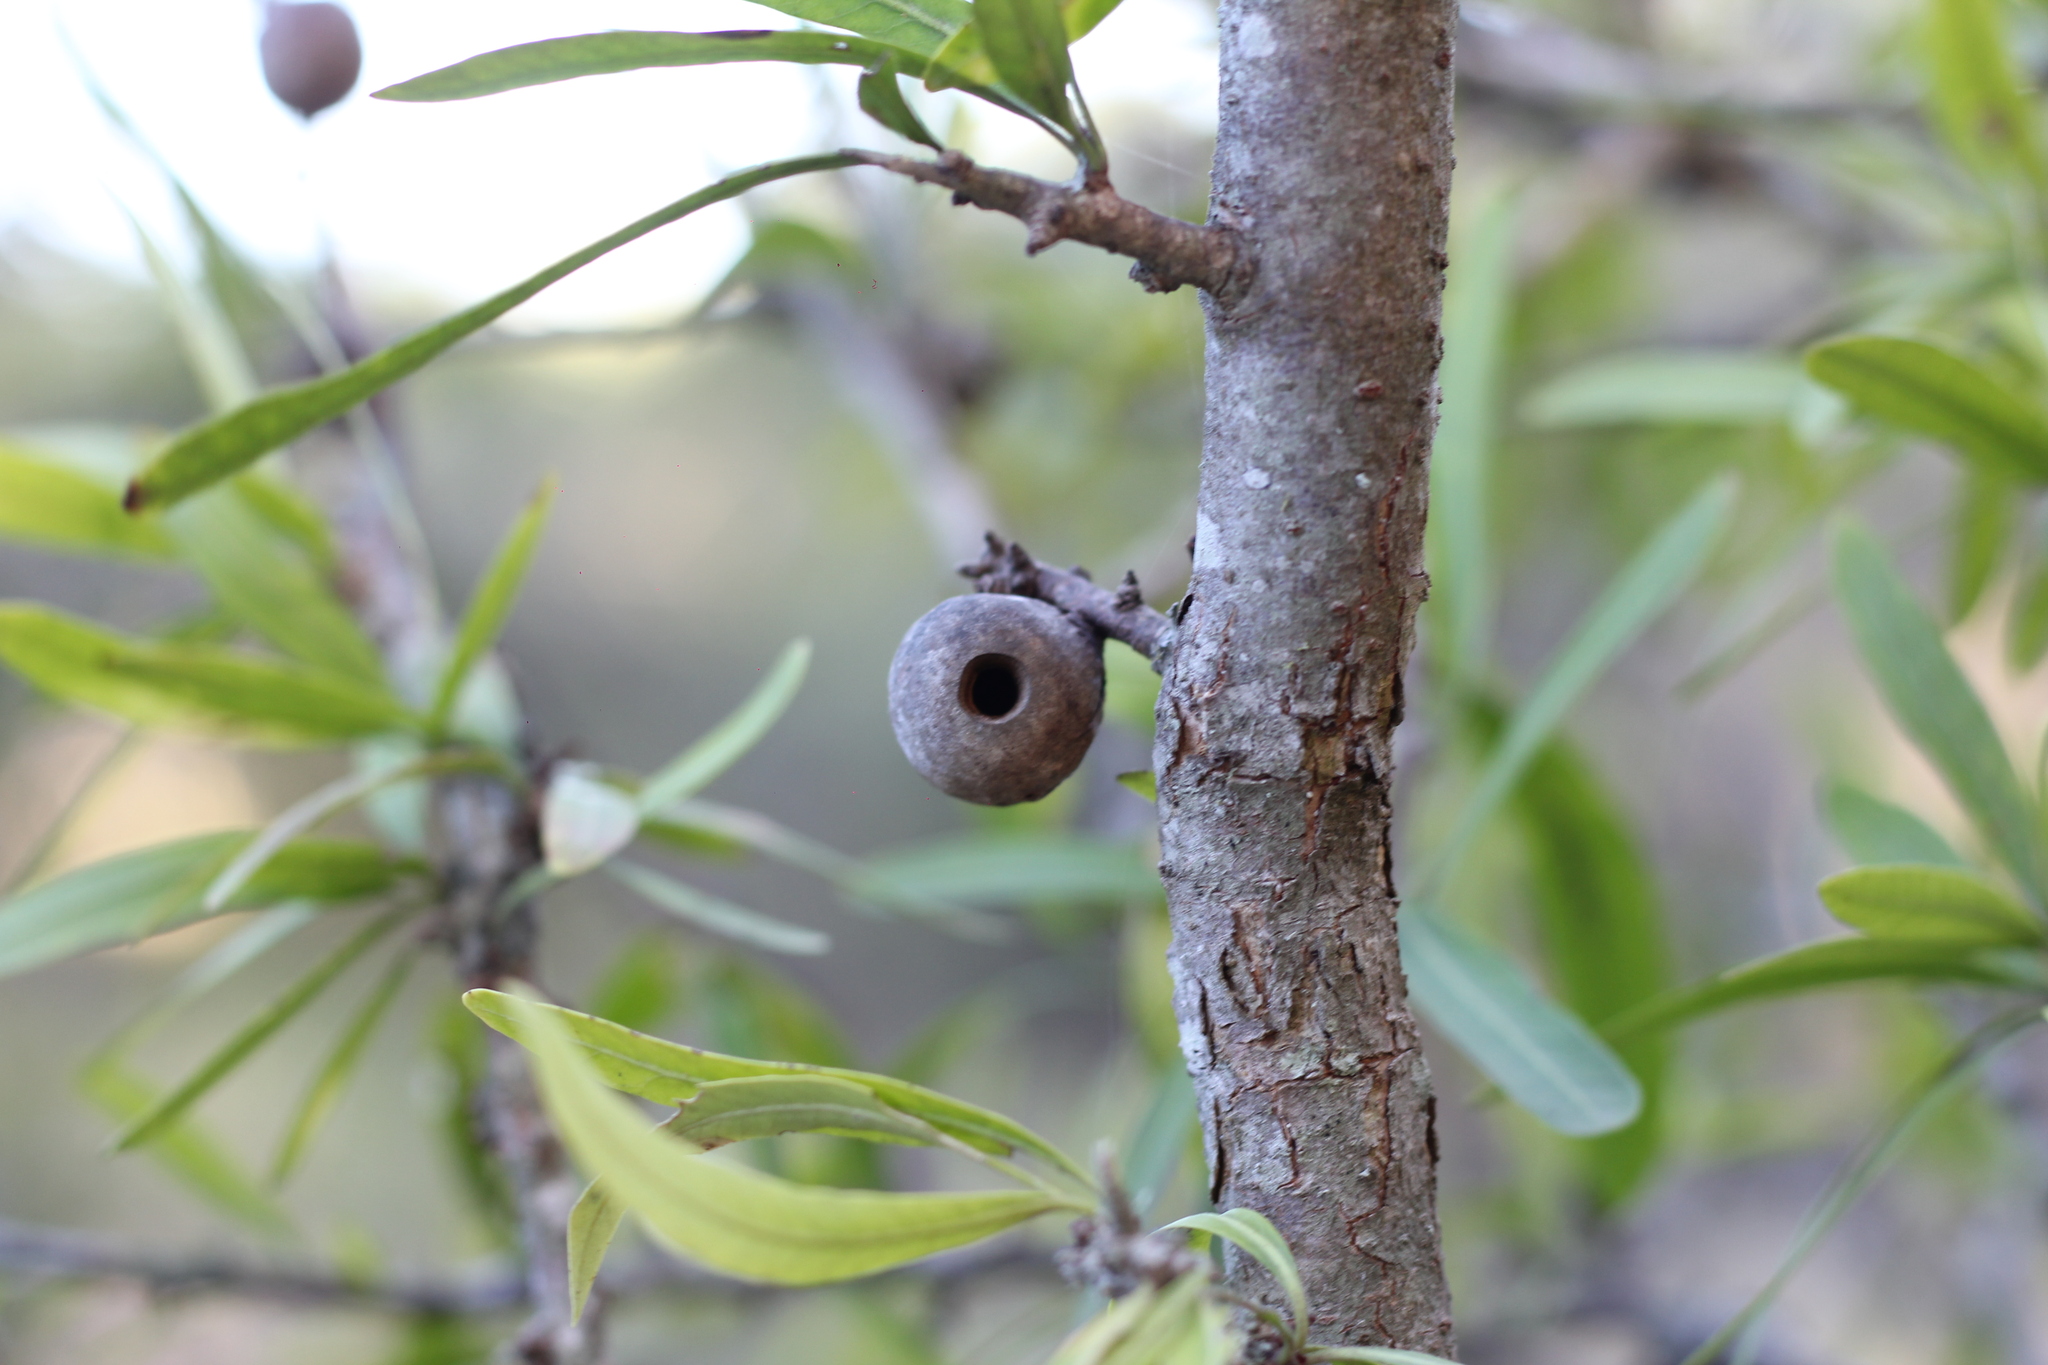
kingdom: Animalia
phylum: Arthropoda
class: Insecta
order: Lepidoptera
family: Cecidosidae
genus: Cecidoses
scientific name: Cecidoses eremita
